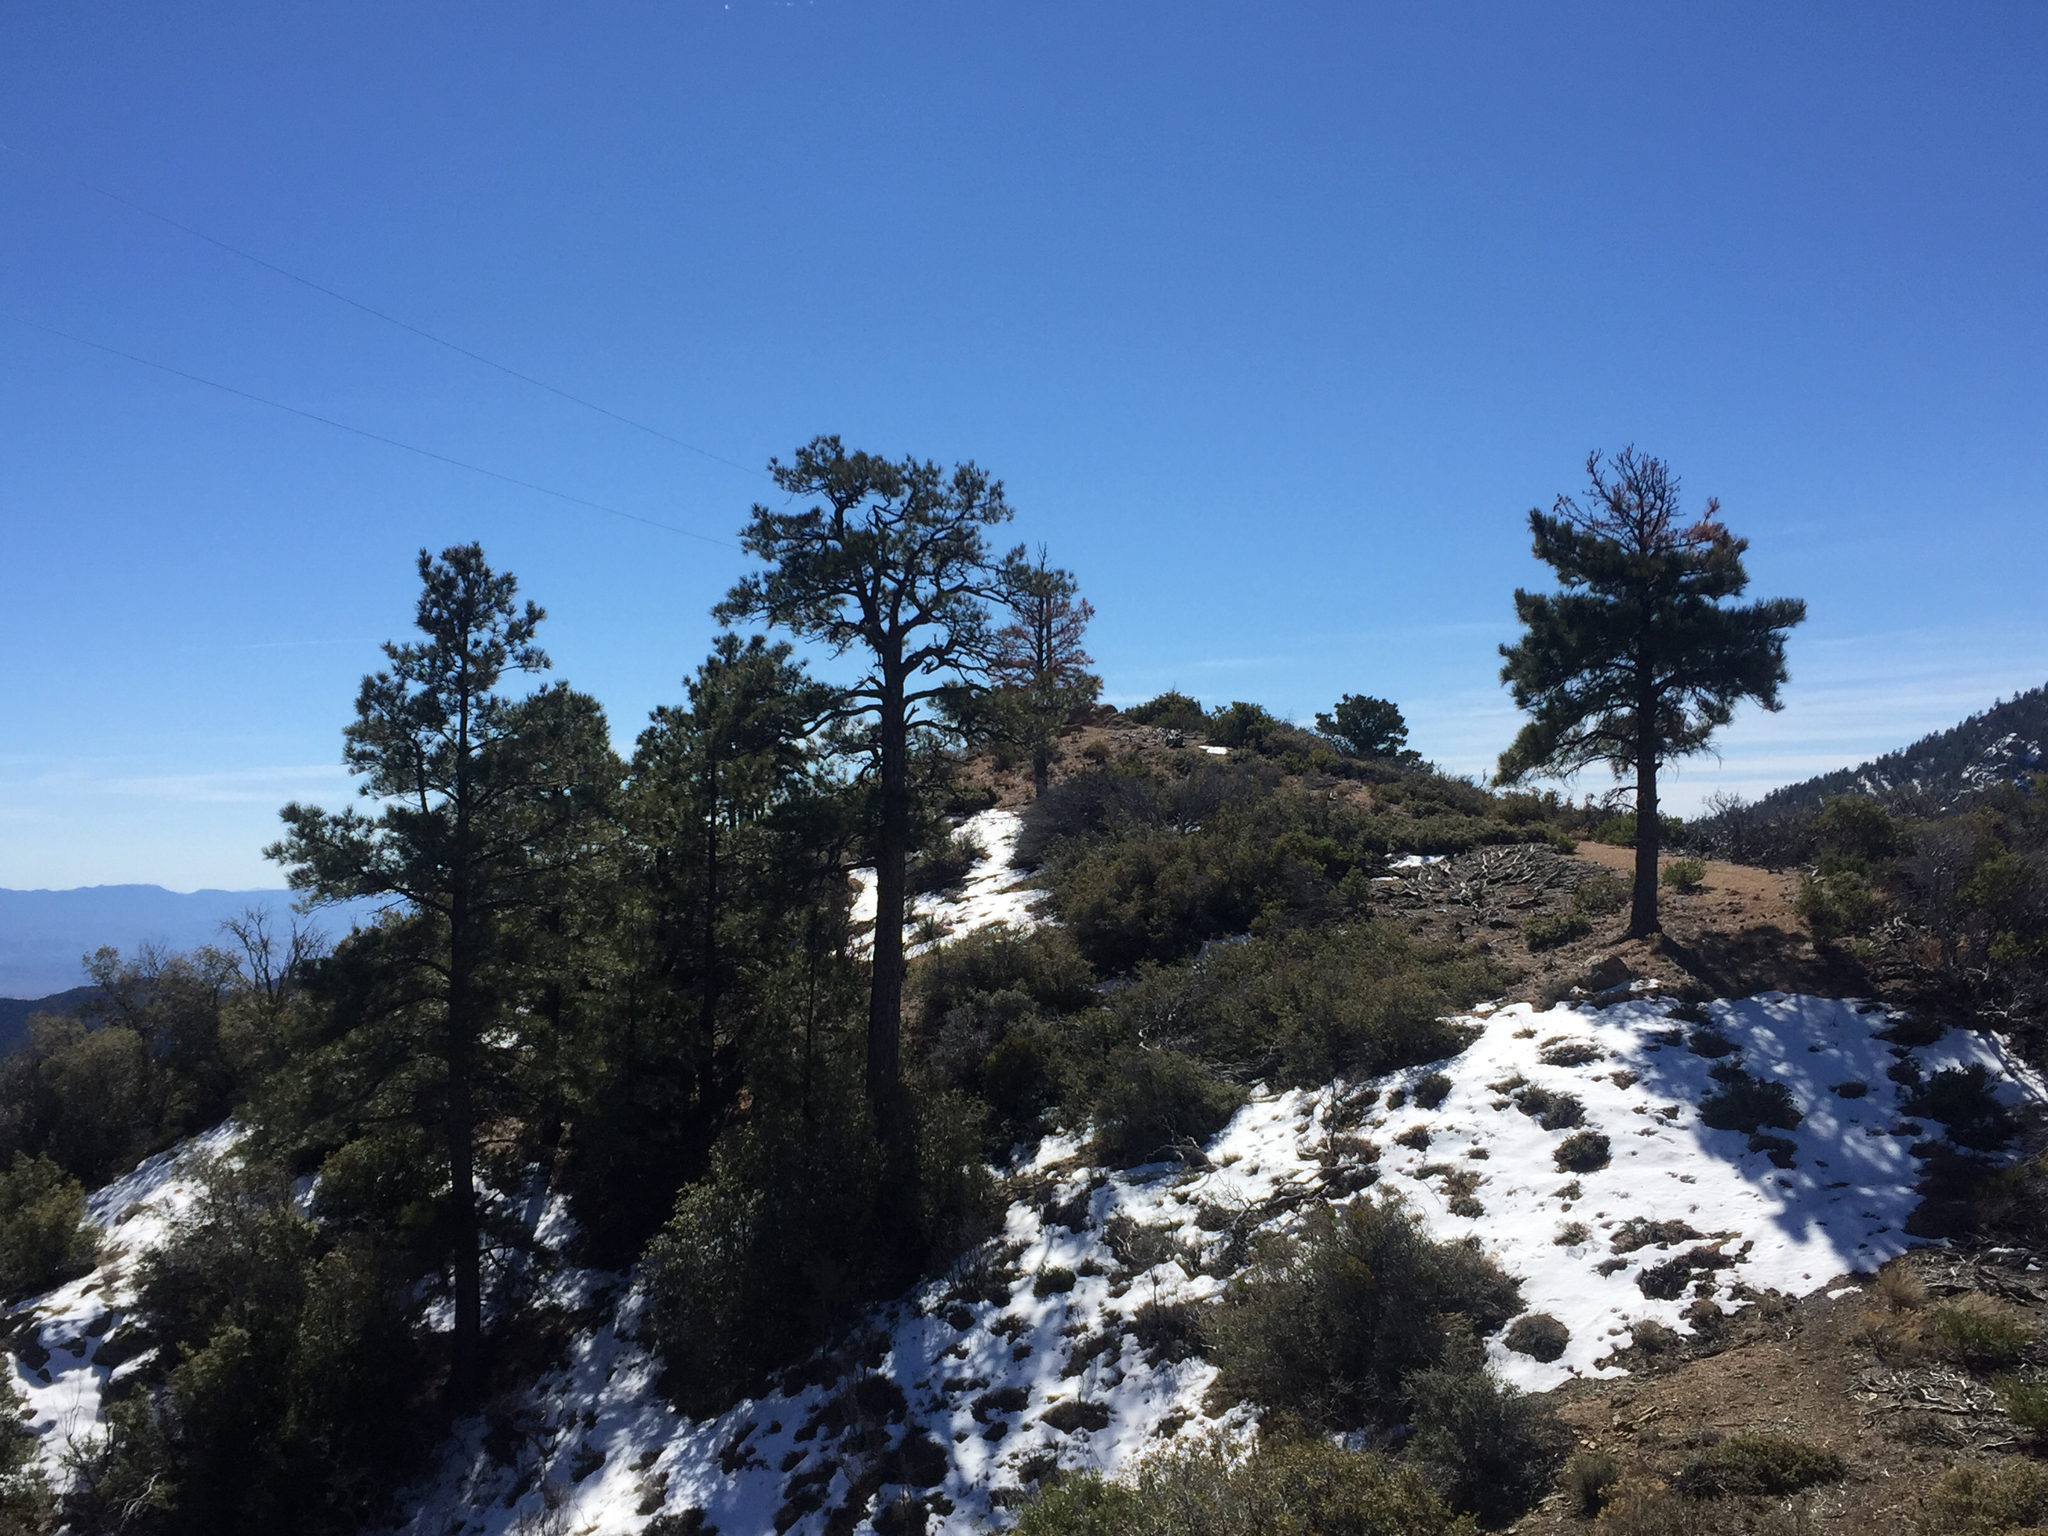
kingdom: Plantae
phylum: Tracheophyta
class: Pinopsida
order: Pinales
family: Pinaceae
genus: Pinus
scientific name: Pinus ponderosa
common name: Western yellow-pine
